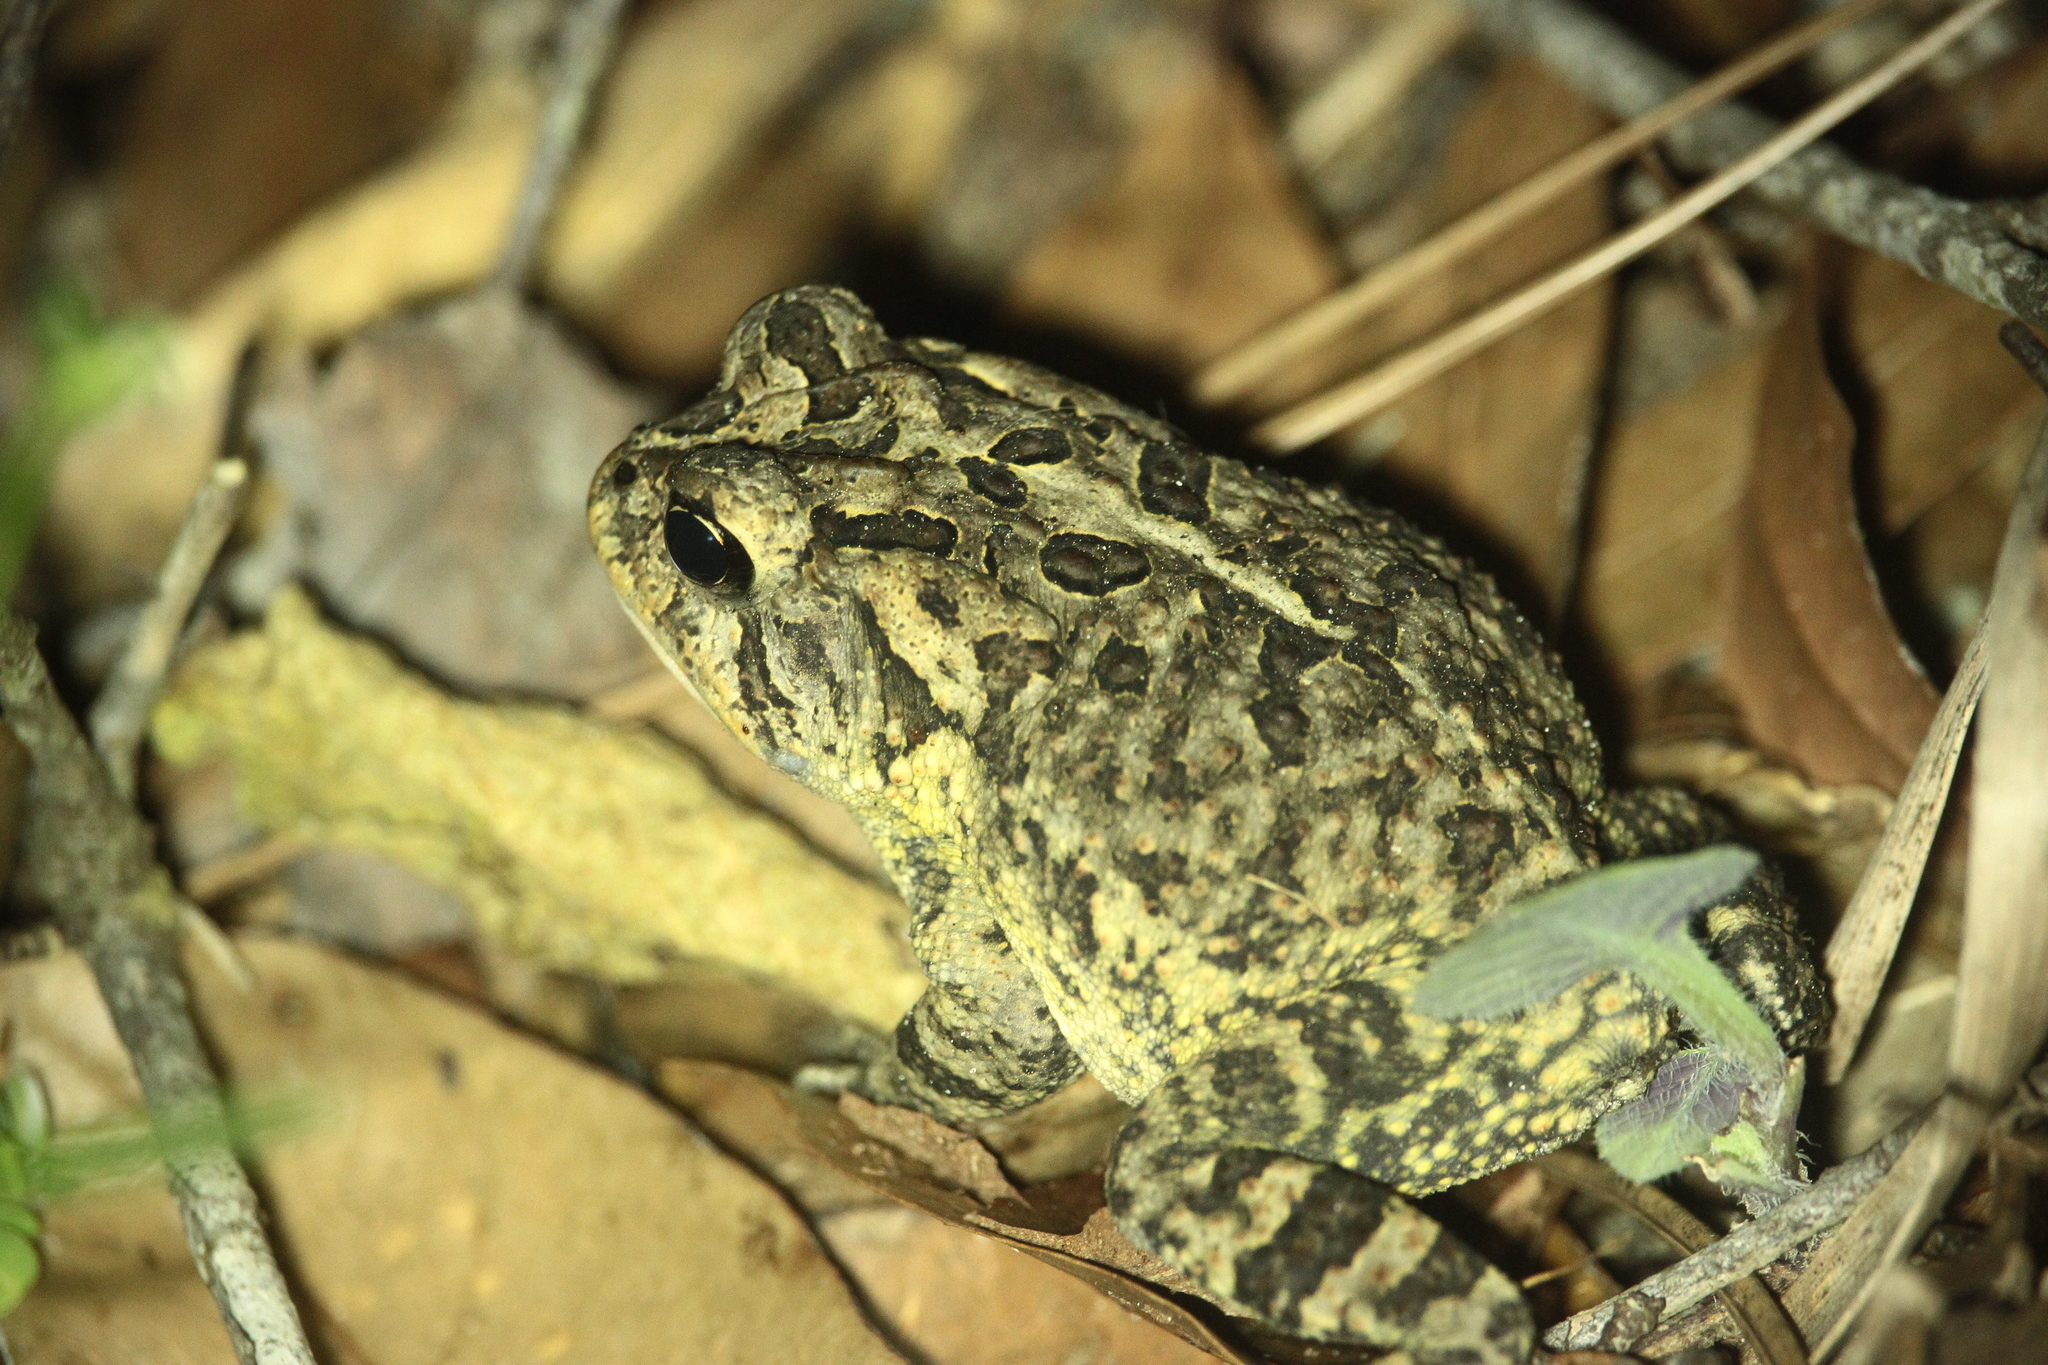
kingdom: Animalia
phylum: Chordata
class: Amphibia
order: Anura
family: Bufonidae
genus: Anaxyrus
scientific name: Anaxyrus terrestris
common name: Southern toad
